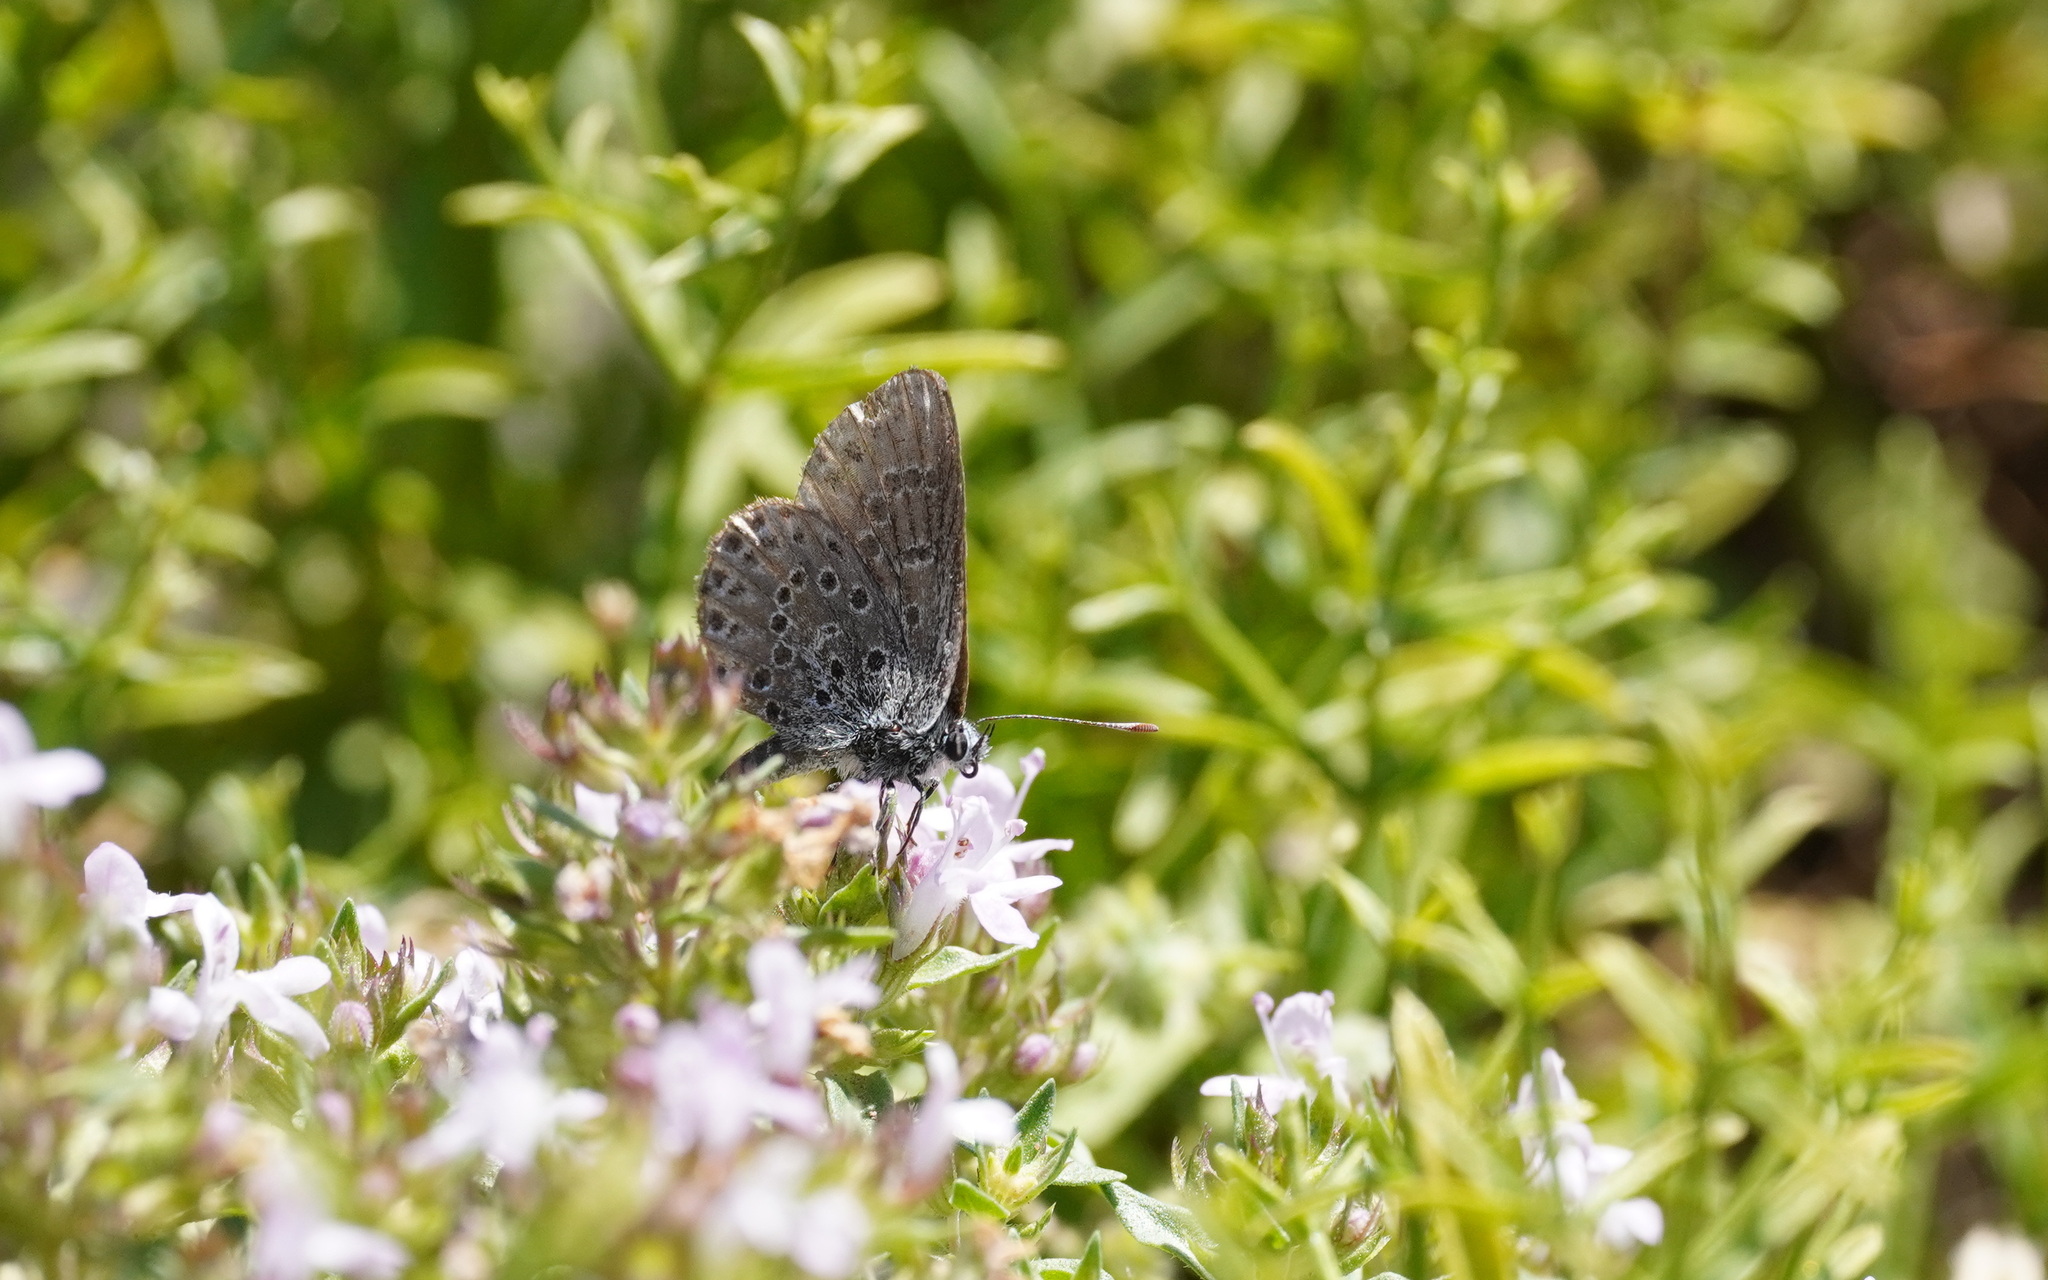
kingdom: Animalia
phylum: Arthropoda
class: Insecta
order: Lepidoptera
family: Lycaenidae
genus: Pseudophilotes
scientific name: Pseudophilotes barbagiae
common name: Sardinian blue
